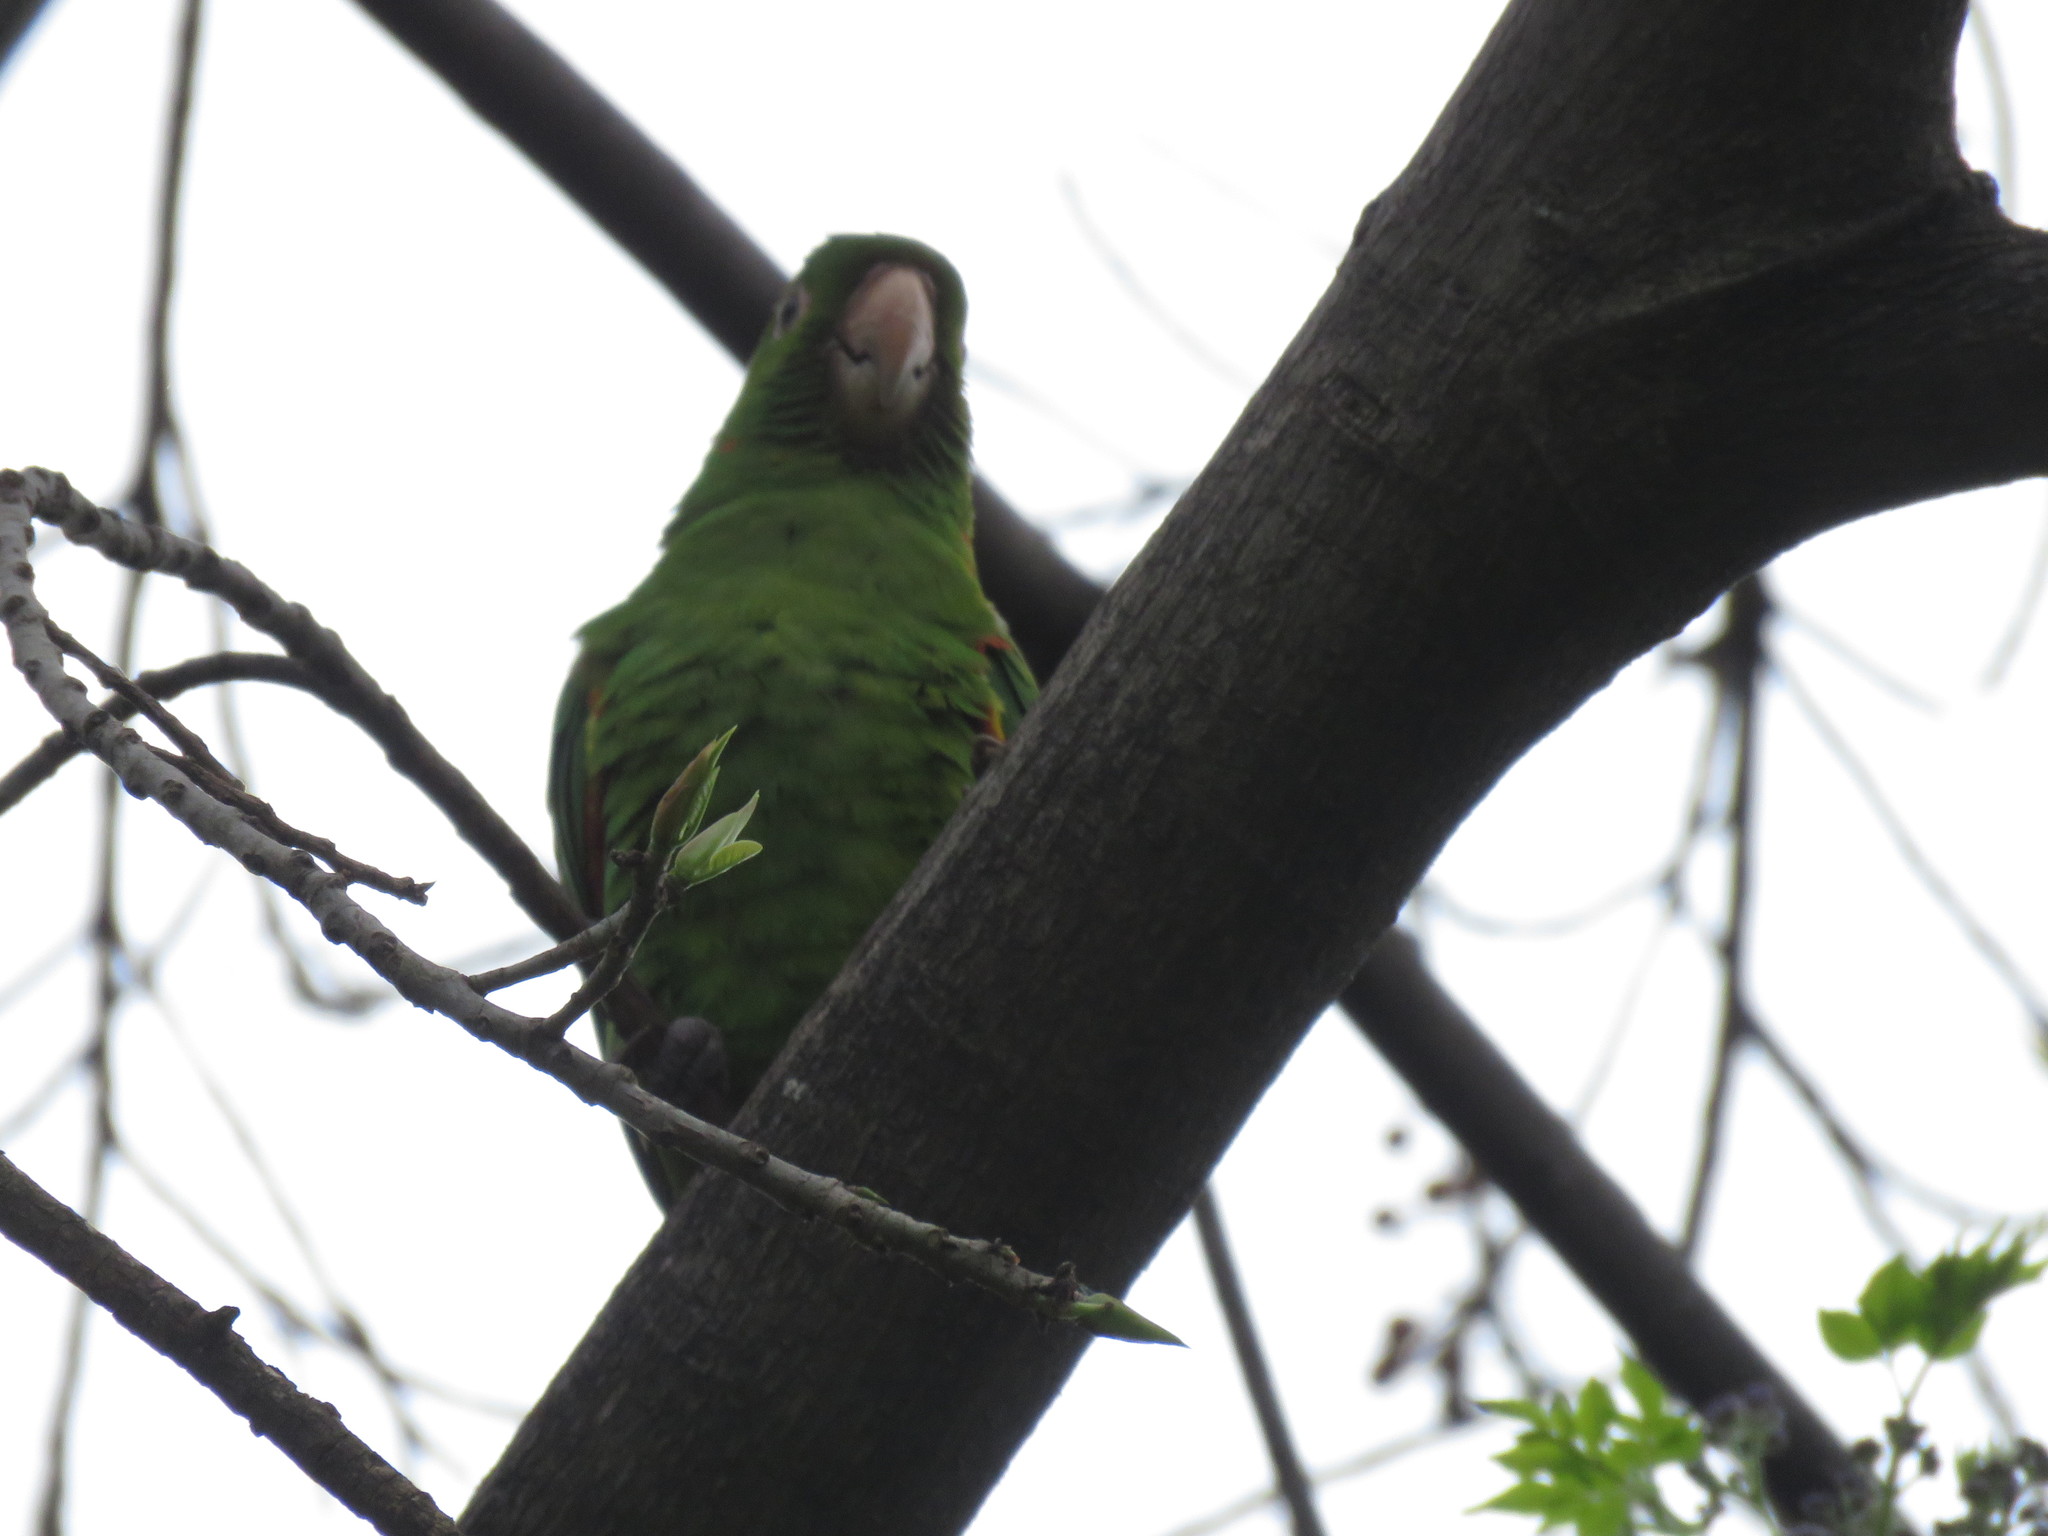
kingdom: Animalia
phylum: Chordata
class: Aves
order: Psittaciformes
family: Psittacidae
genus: Aratinga
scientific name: Aratinga leucophthalma
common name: White-eyed parakeet
